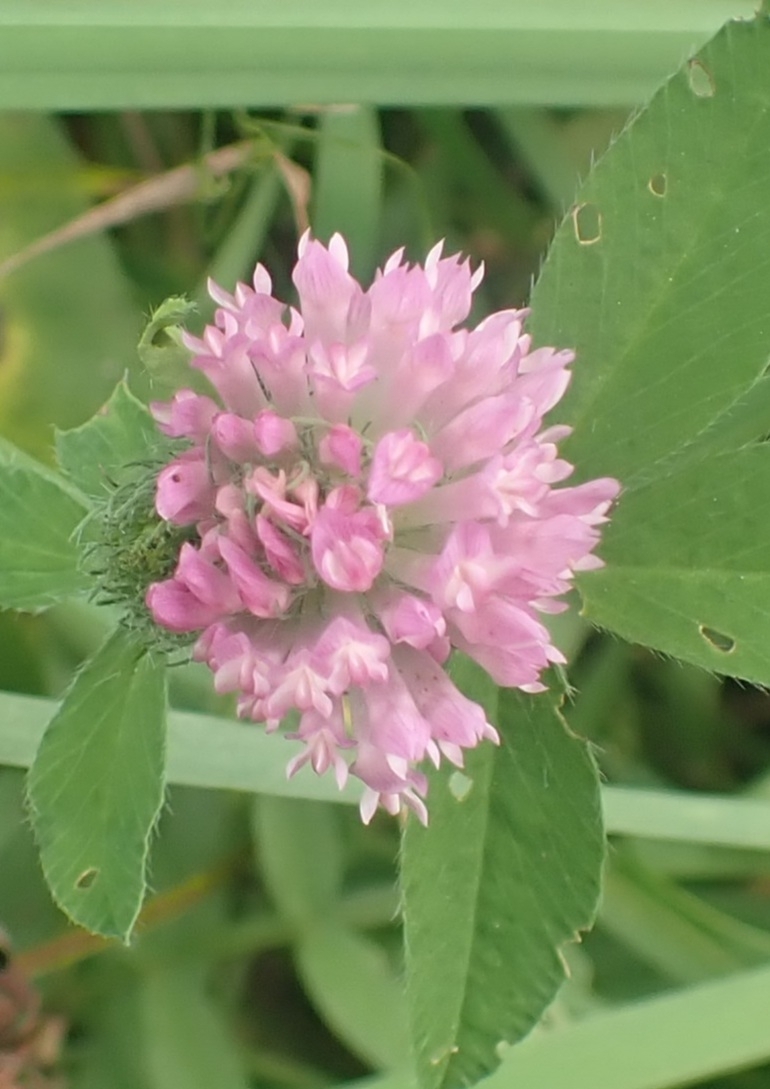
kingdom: Plantae
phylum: Tracheophyta
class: Magnoliopsida
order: Fabales
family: Fabaceae
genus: Trifolium
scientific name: Trifolium pratense
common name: Red clover
